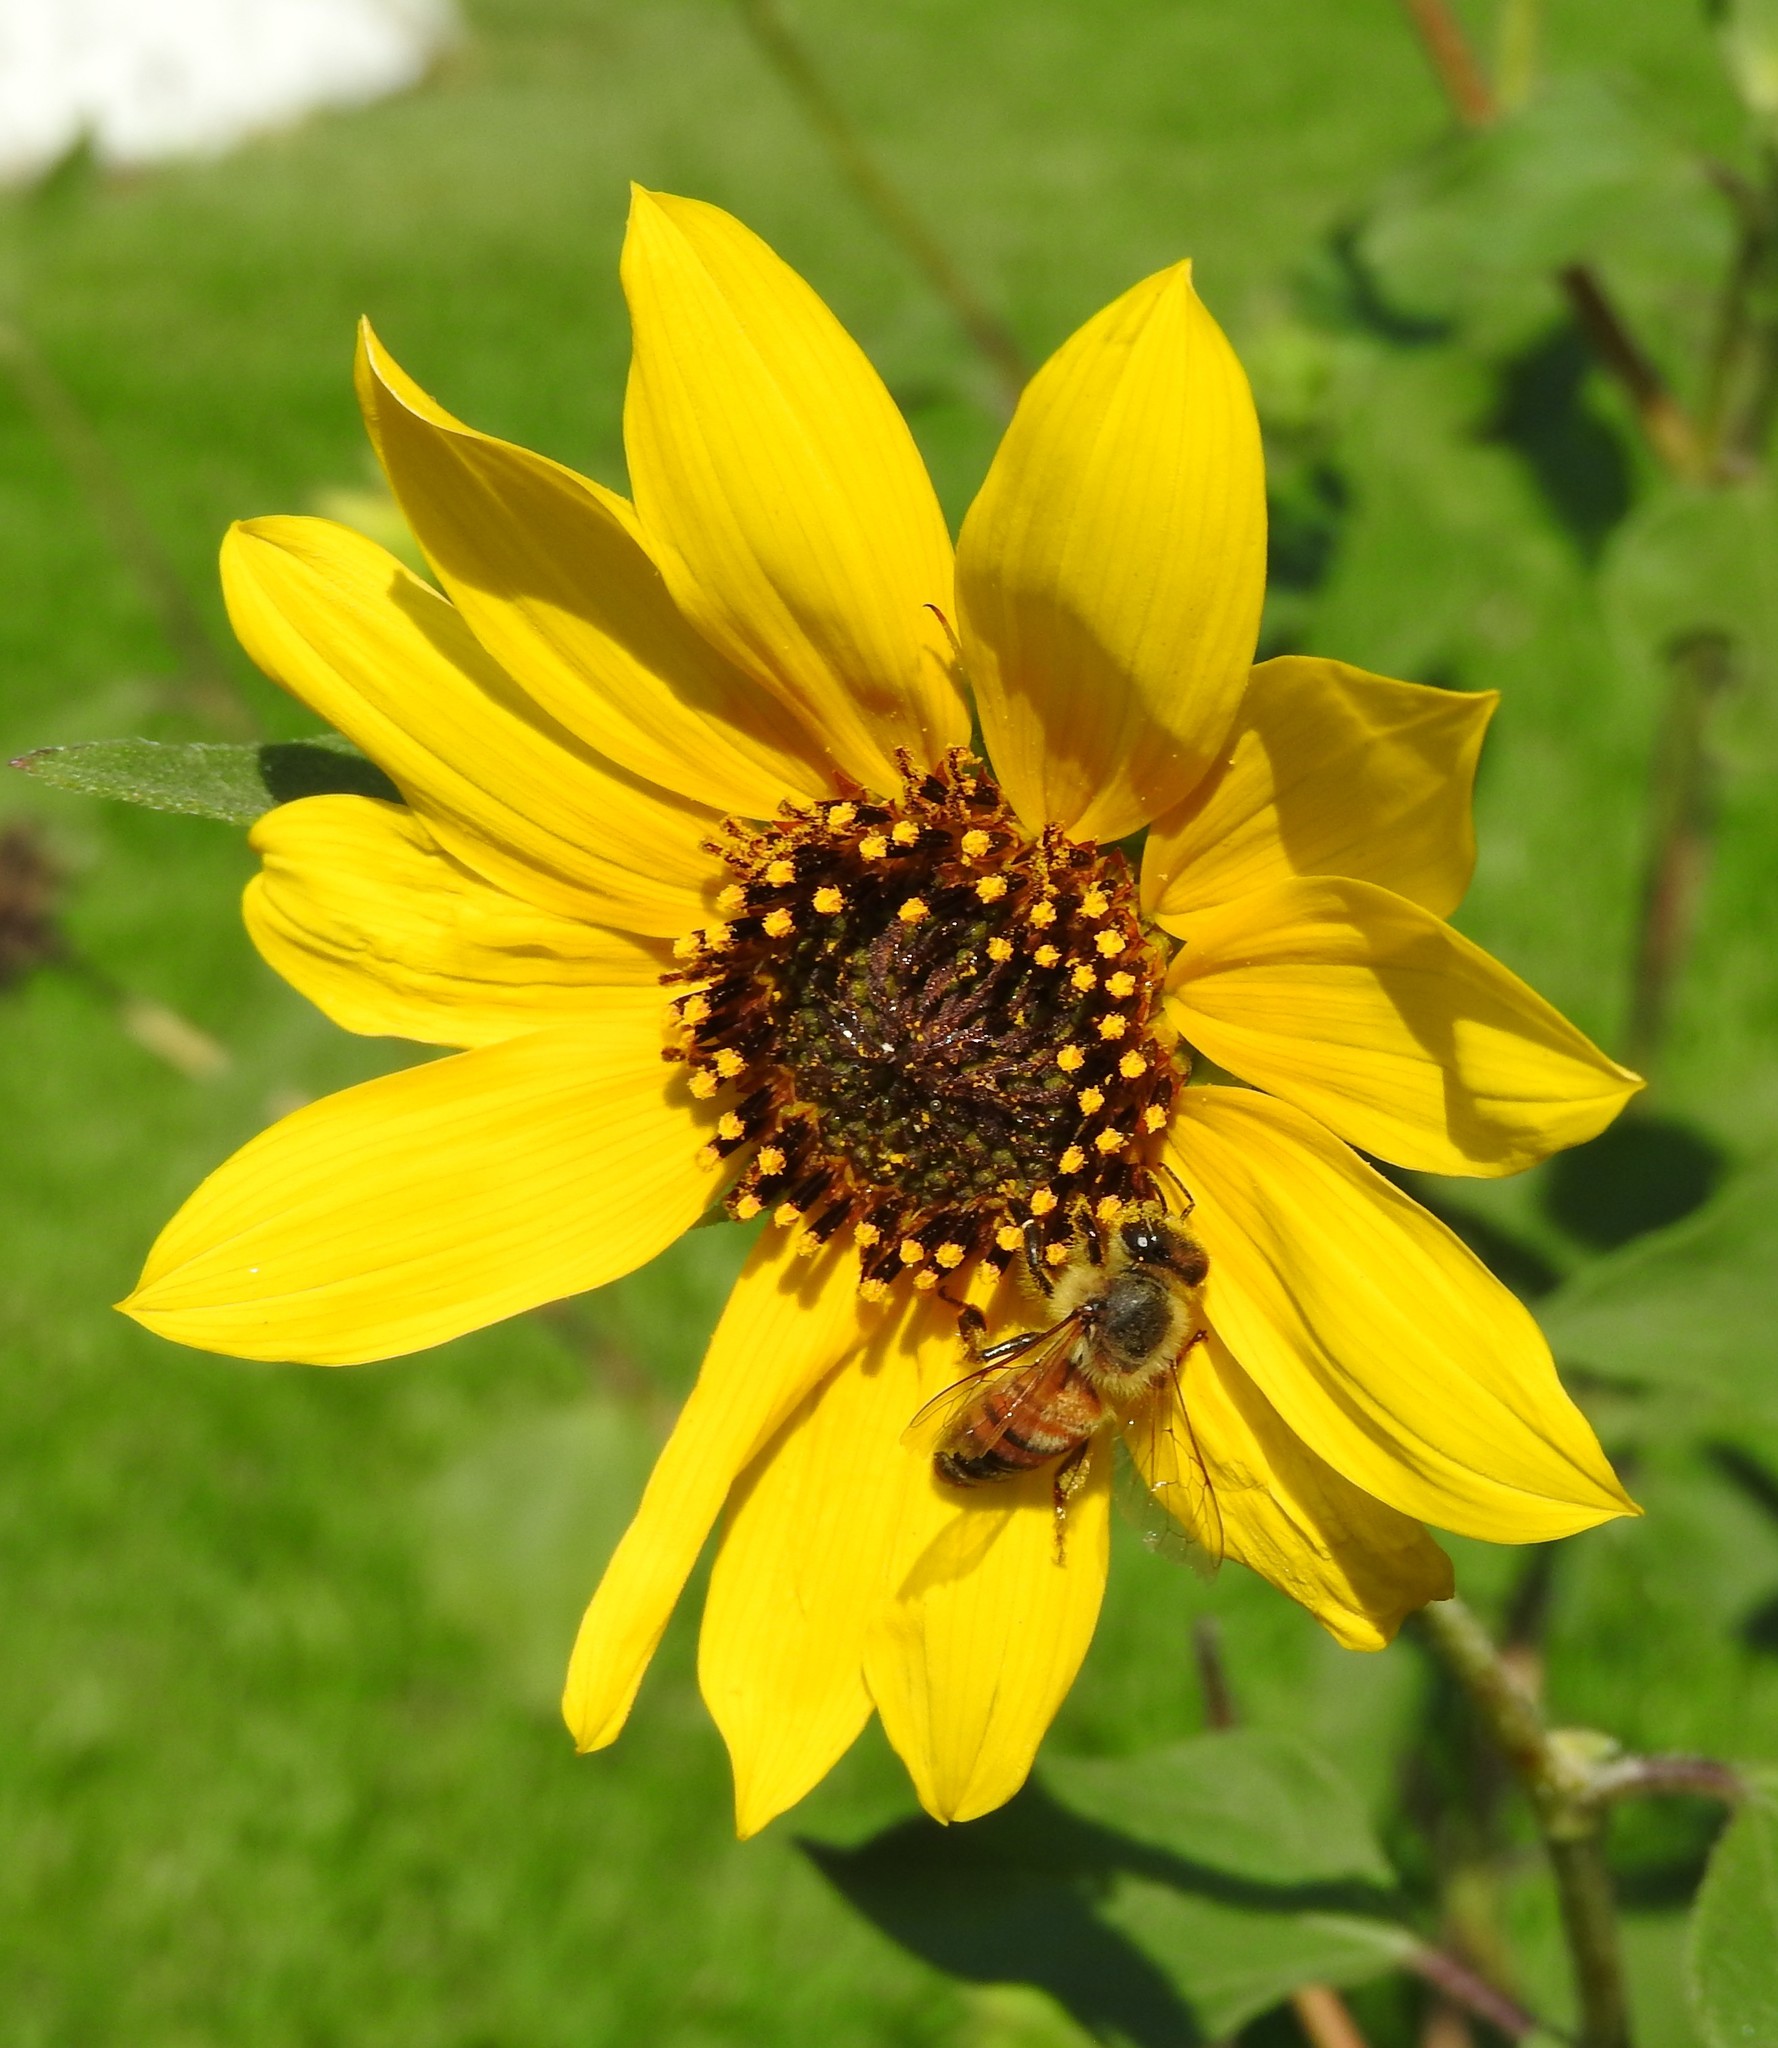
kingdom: Animalia
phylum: Arthropoda
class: Insecta
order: Hymenoptera
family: Apidae
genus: Apis
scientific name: Apis mellifera
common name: Honey bee
